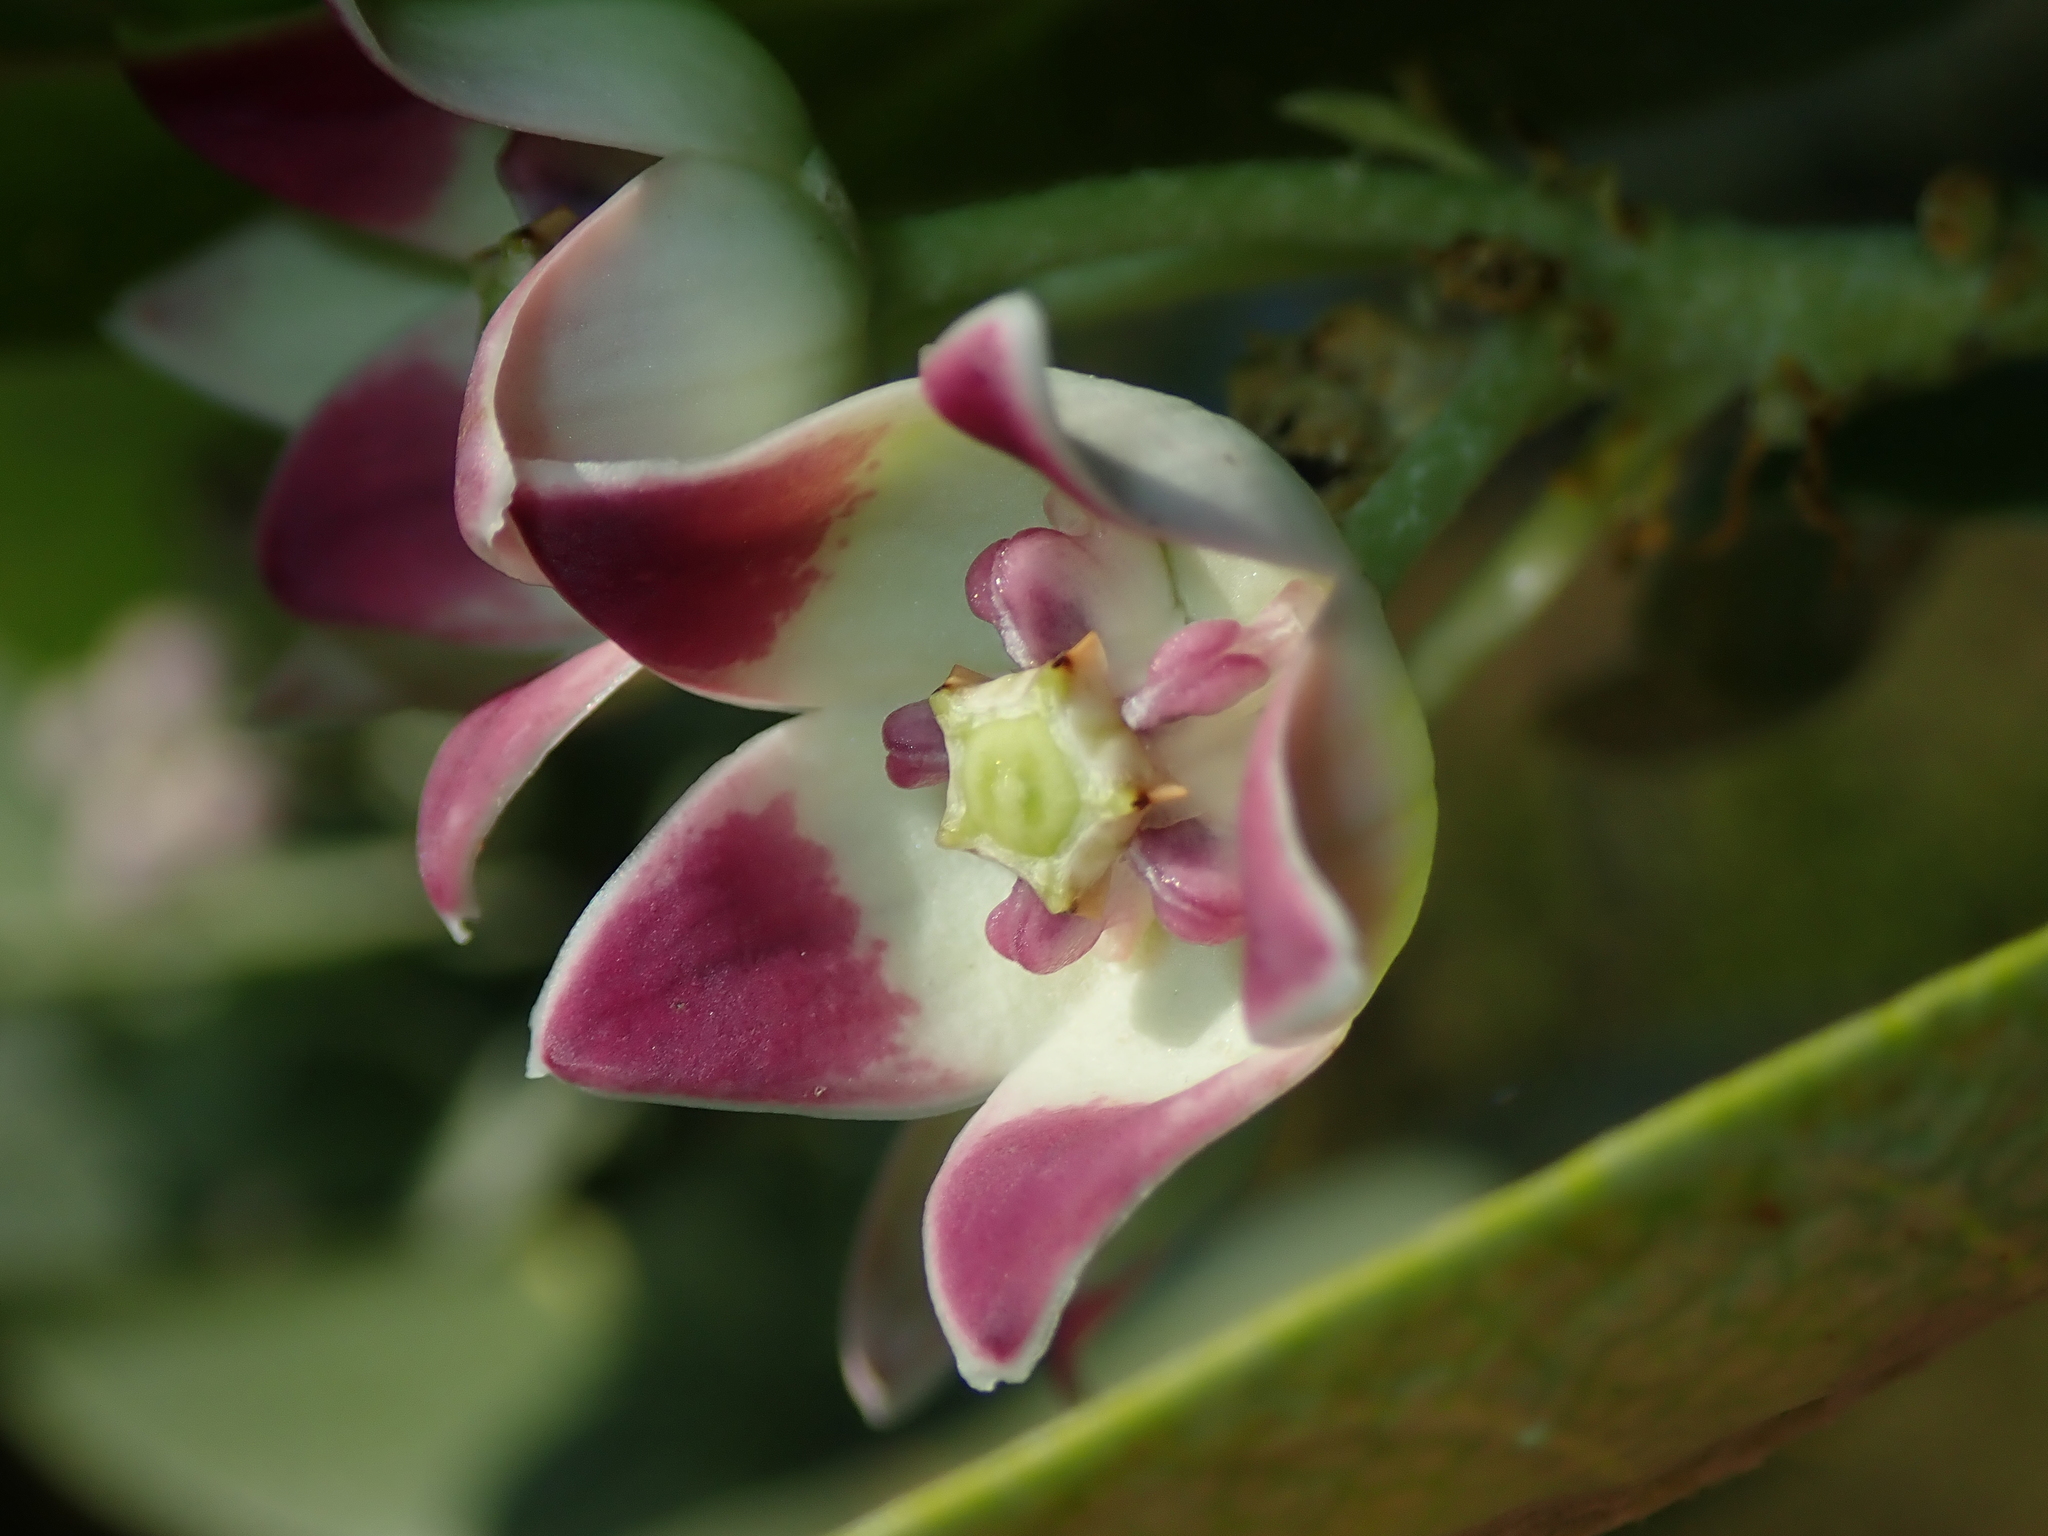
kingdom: Plantae
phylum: Tracheophyta
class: Magnoliopsida
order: Gentianales
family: Apocynaceae
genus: Calotropis
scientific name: Calotropis procera
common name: Roostertree
